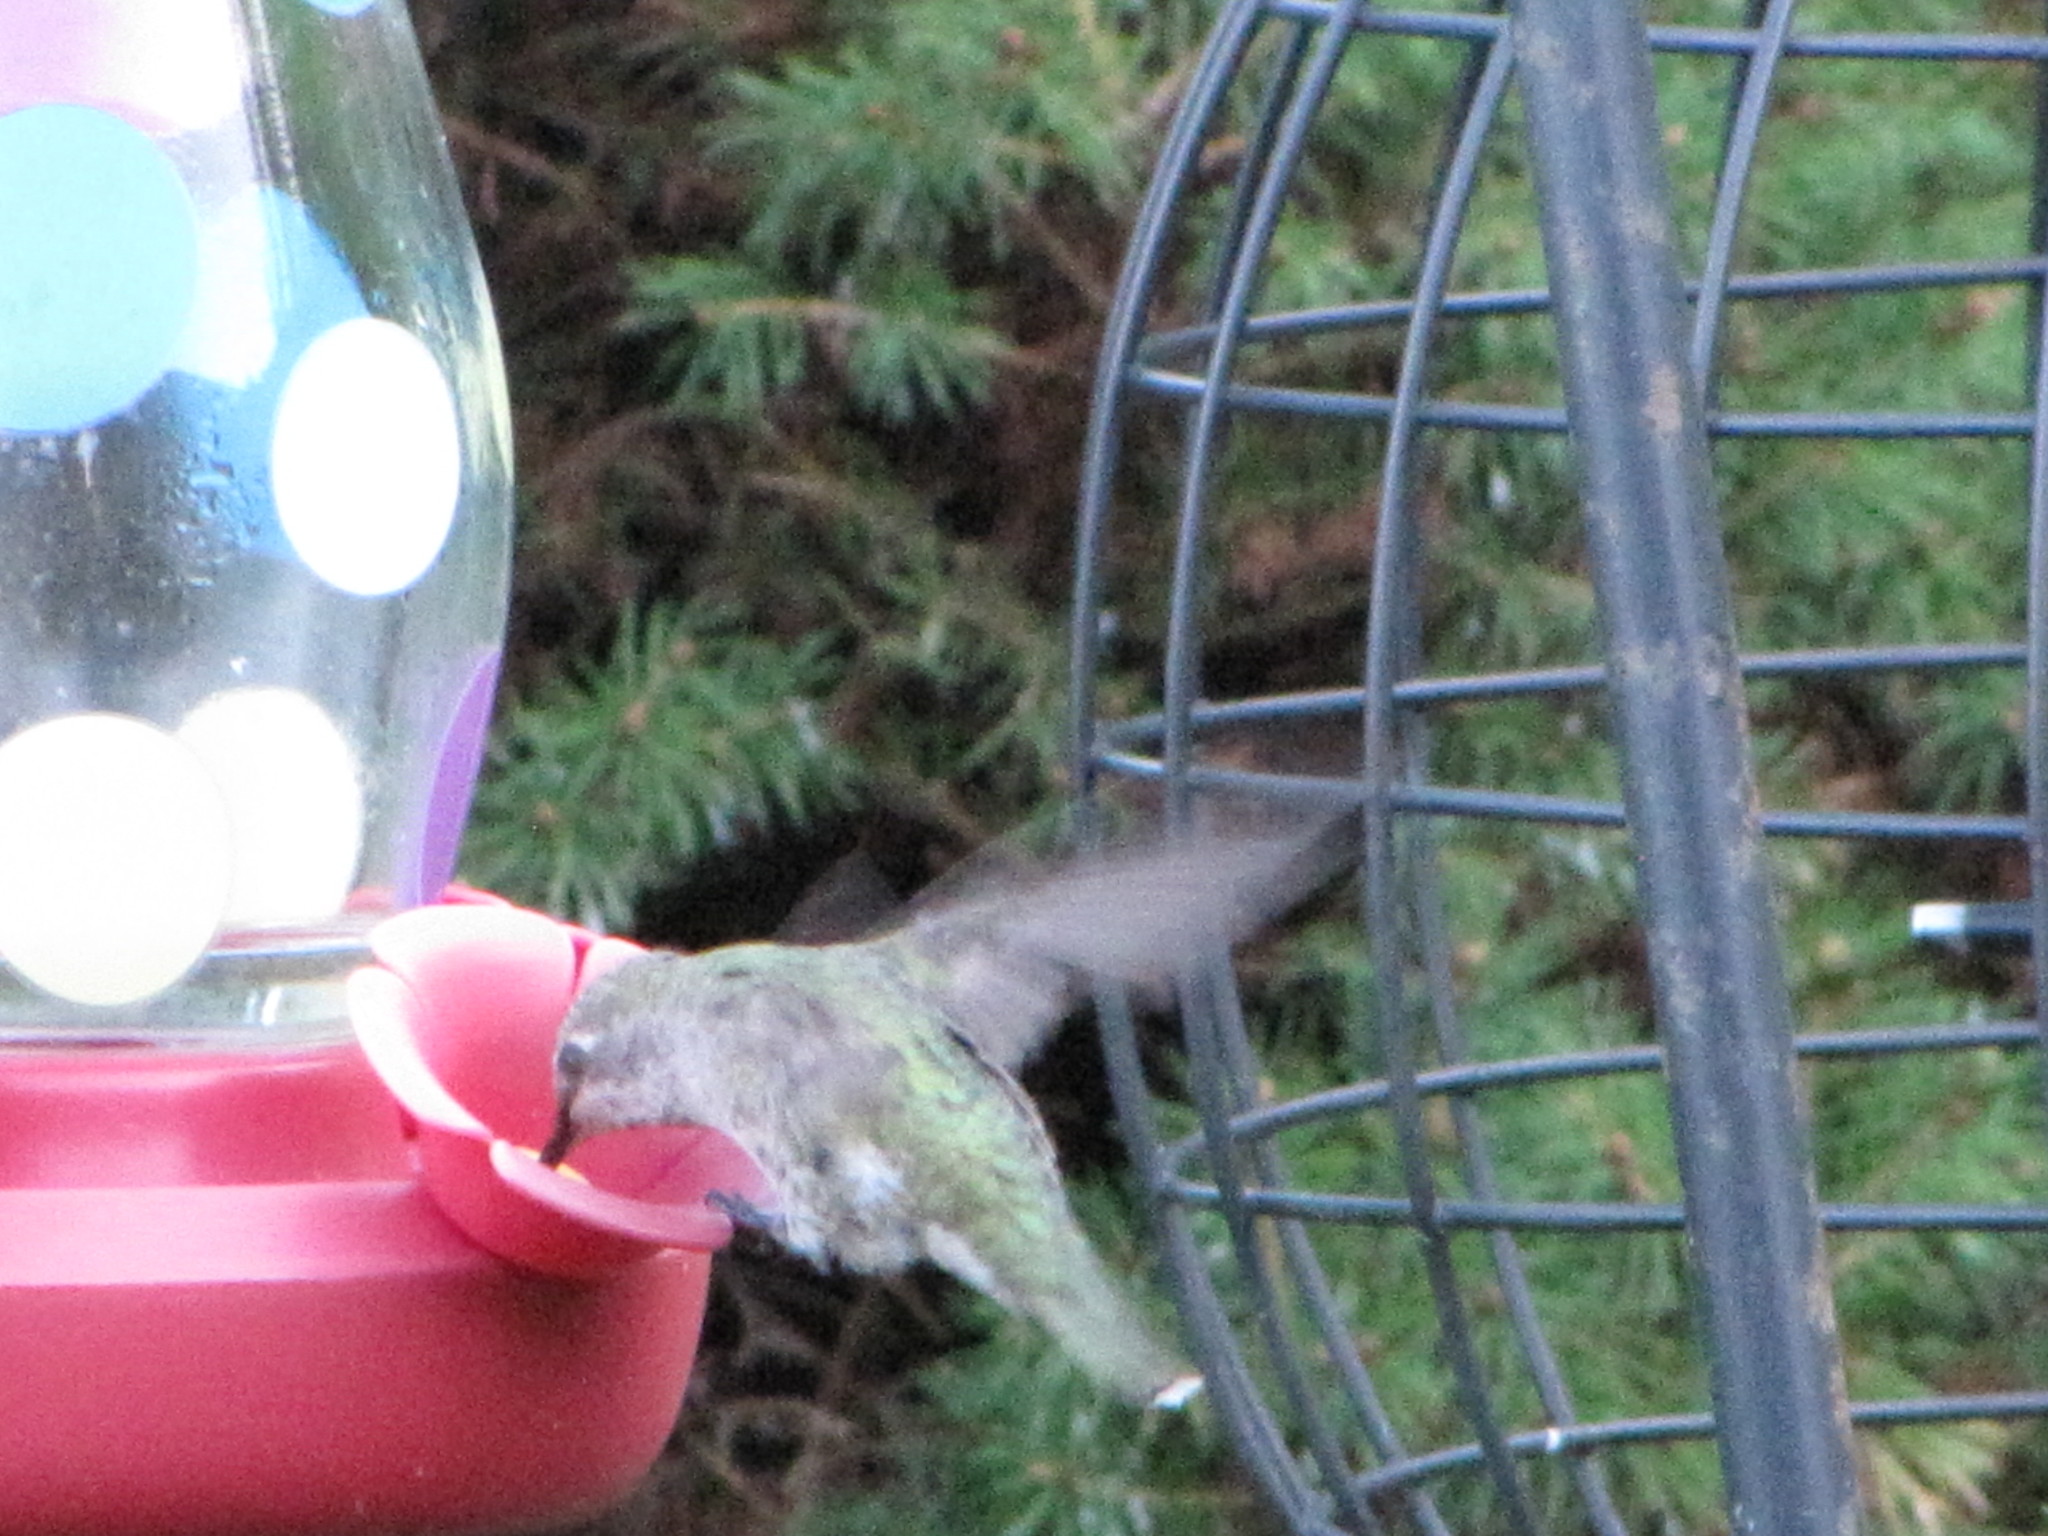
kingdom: Animalia
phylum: Chordata
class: Aves
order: Apodiformes
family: Trochilidae
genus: Calypte
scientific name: Calypte anna
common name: Anna's hummingbird
